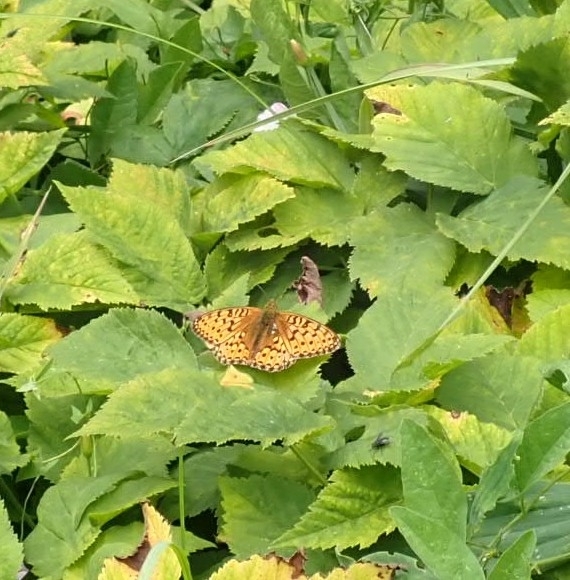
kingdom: Animalia
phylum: Arthropoda
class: Insecta
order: Lepidoptera
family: Nymphalidae
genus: Speyeria
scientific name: Speyeria aglaja
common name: Dark green fritillary
